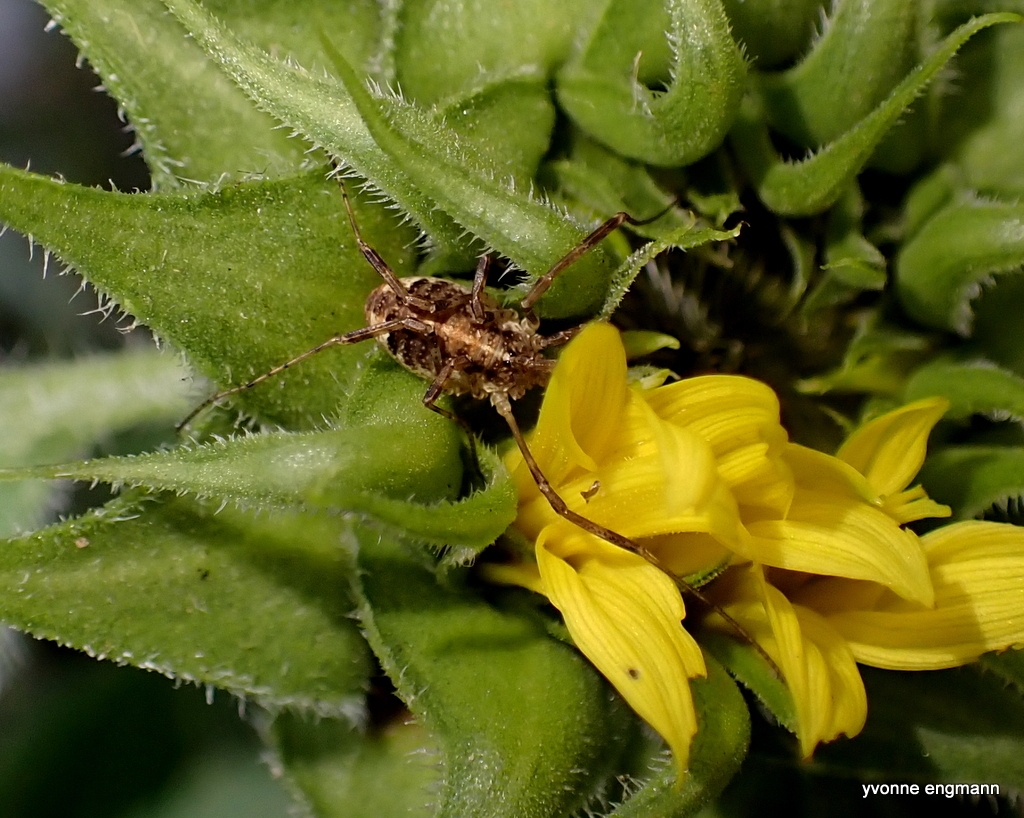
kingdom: Animalia
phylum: Arthropoda
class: Arachnida
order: Opiliones
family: Phalangiidae
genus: Paroligolophus
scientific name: Paroligolophus agrestis
